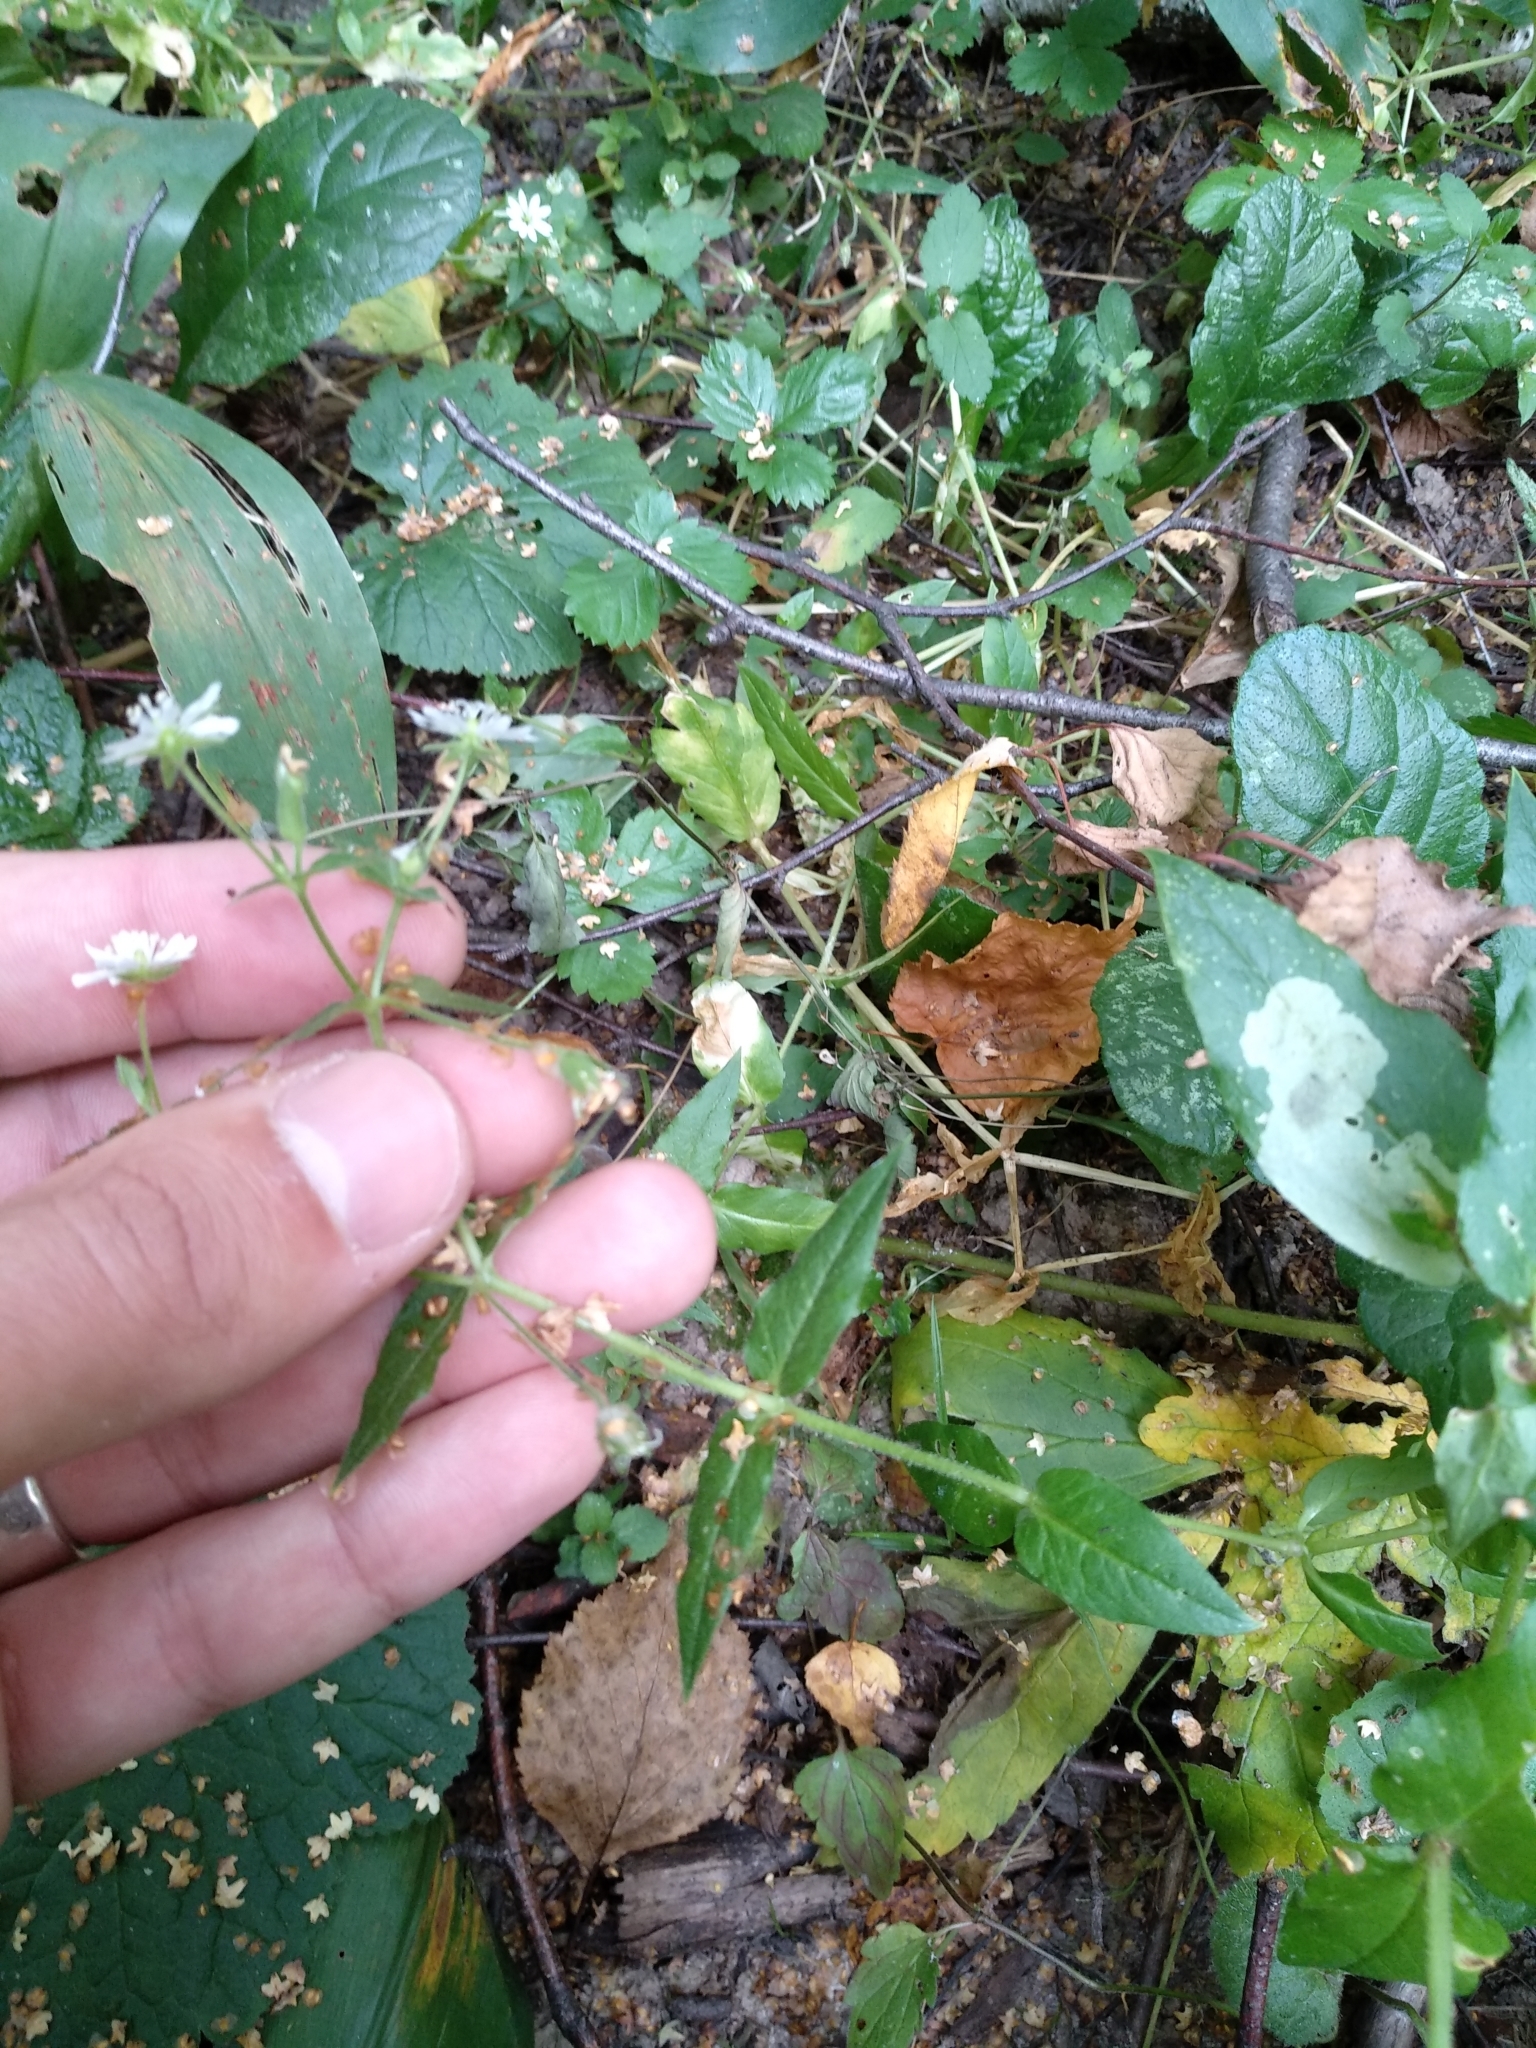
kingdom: Plantae
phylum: Tracheophyta
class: Magnoliopsida
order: Caryophyllales
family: Caryophyllaceae
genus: Stellaria
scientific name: Stellaria aquatica
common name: Water chickweed
